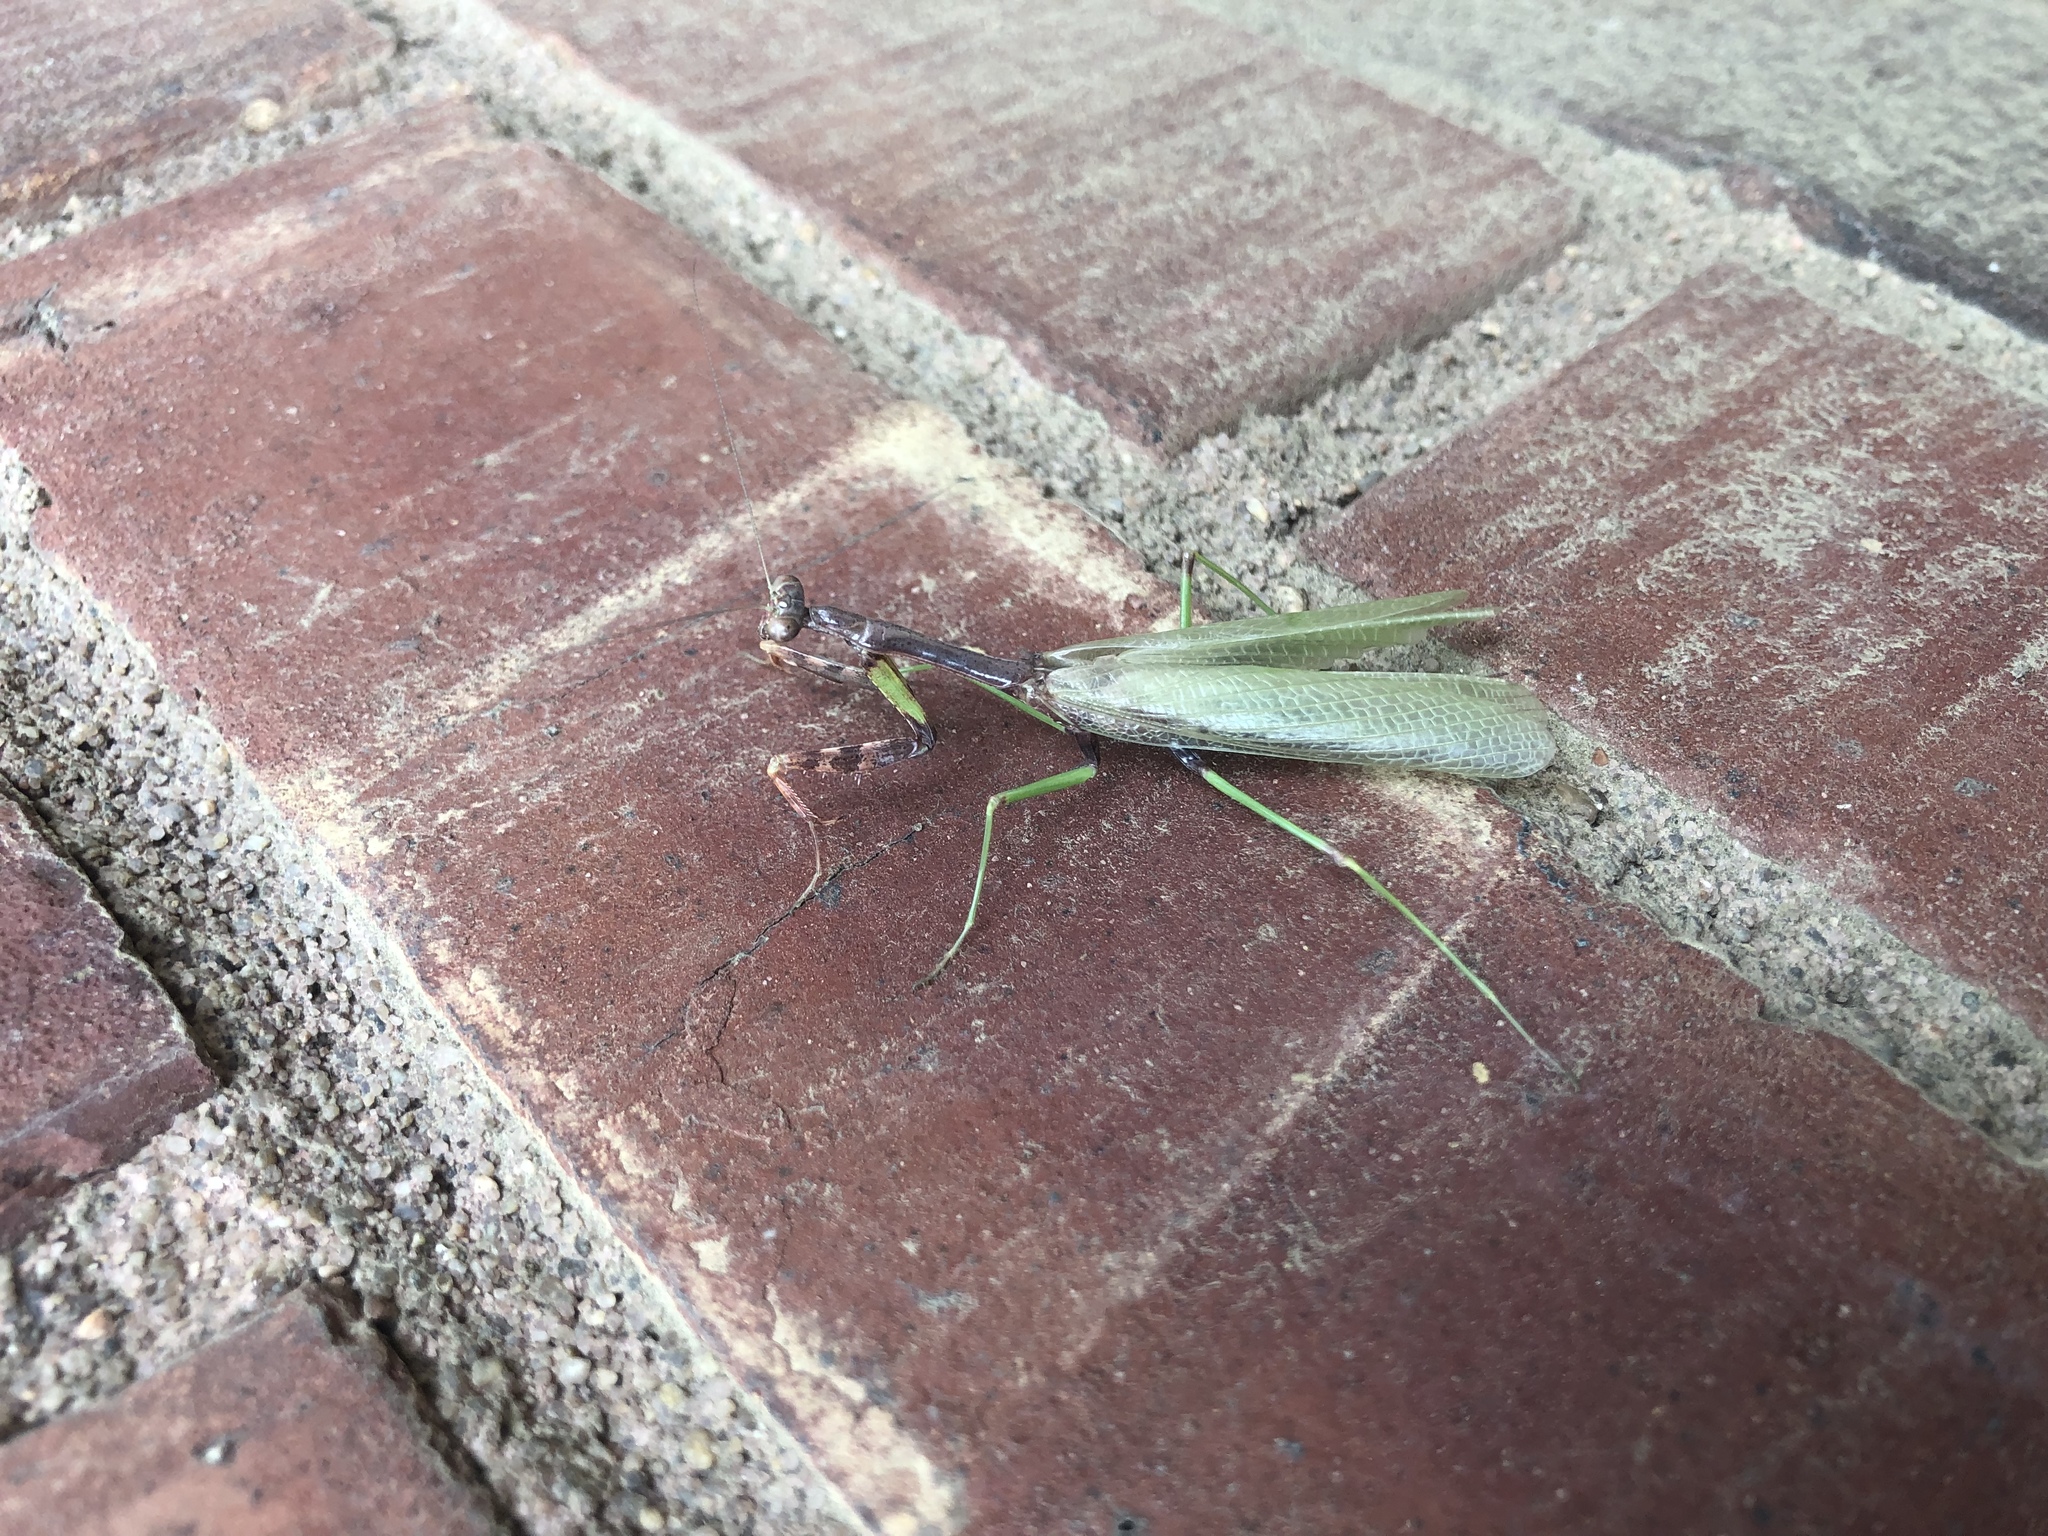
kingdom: Animalia
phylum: Arthropoda
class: Insecta
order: Mantodea
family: Mantidae
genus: Stagmomantis
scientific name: Stagmomantis carolina
